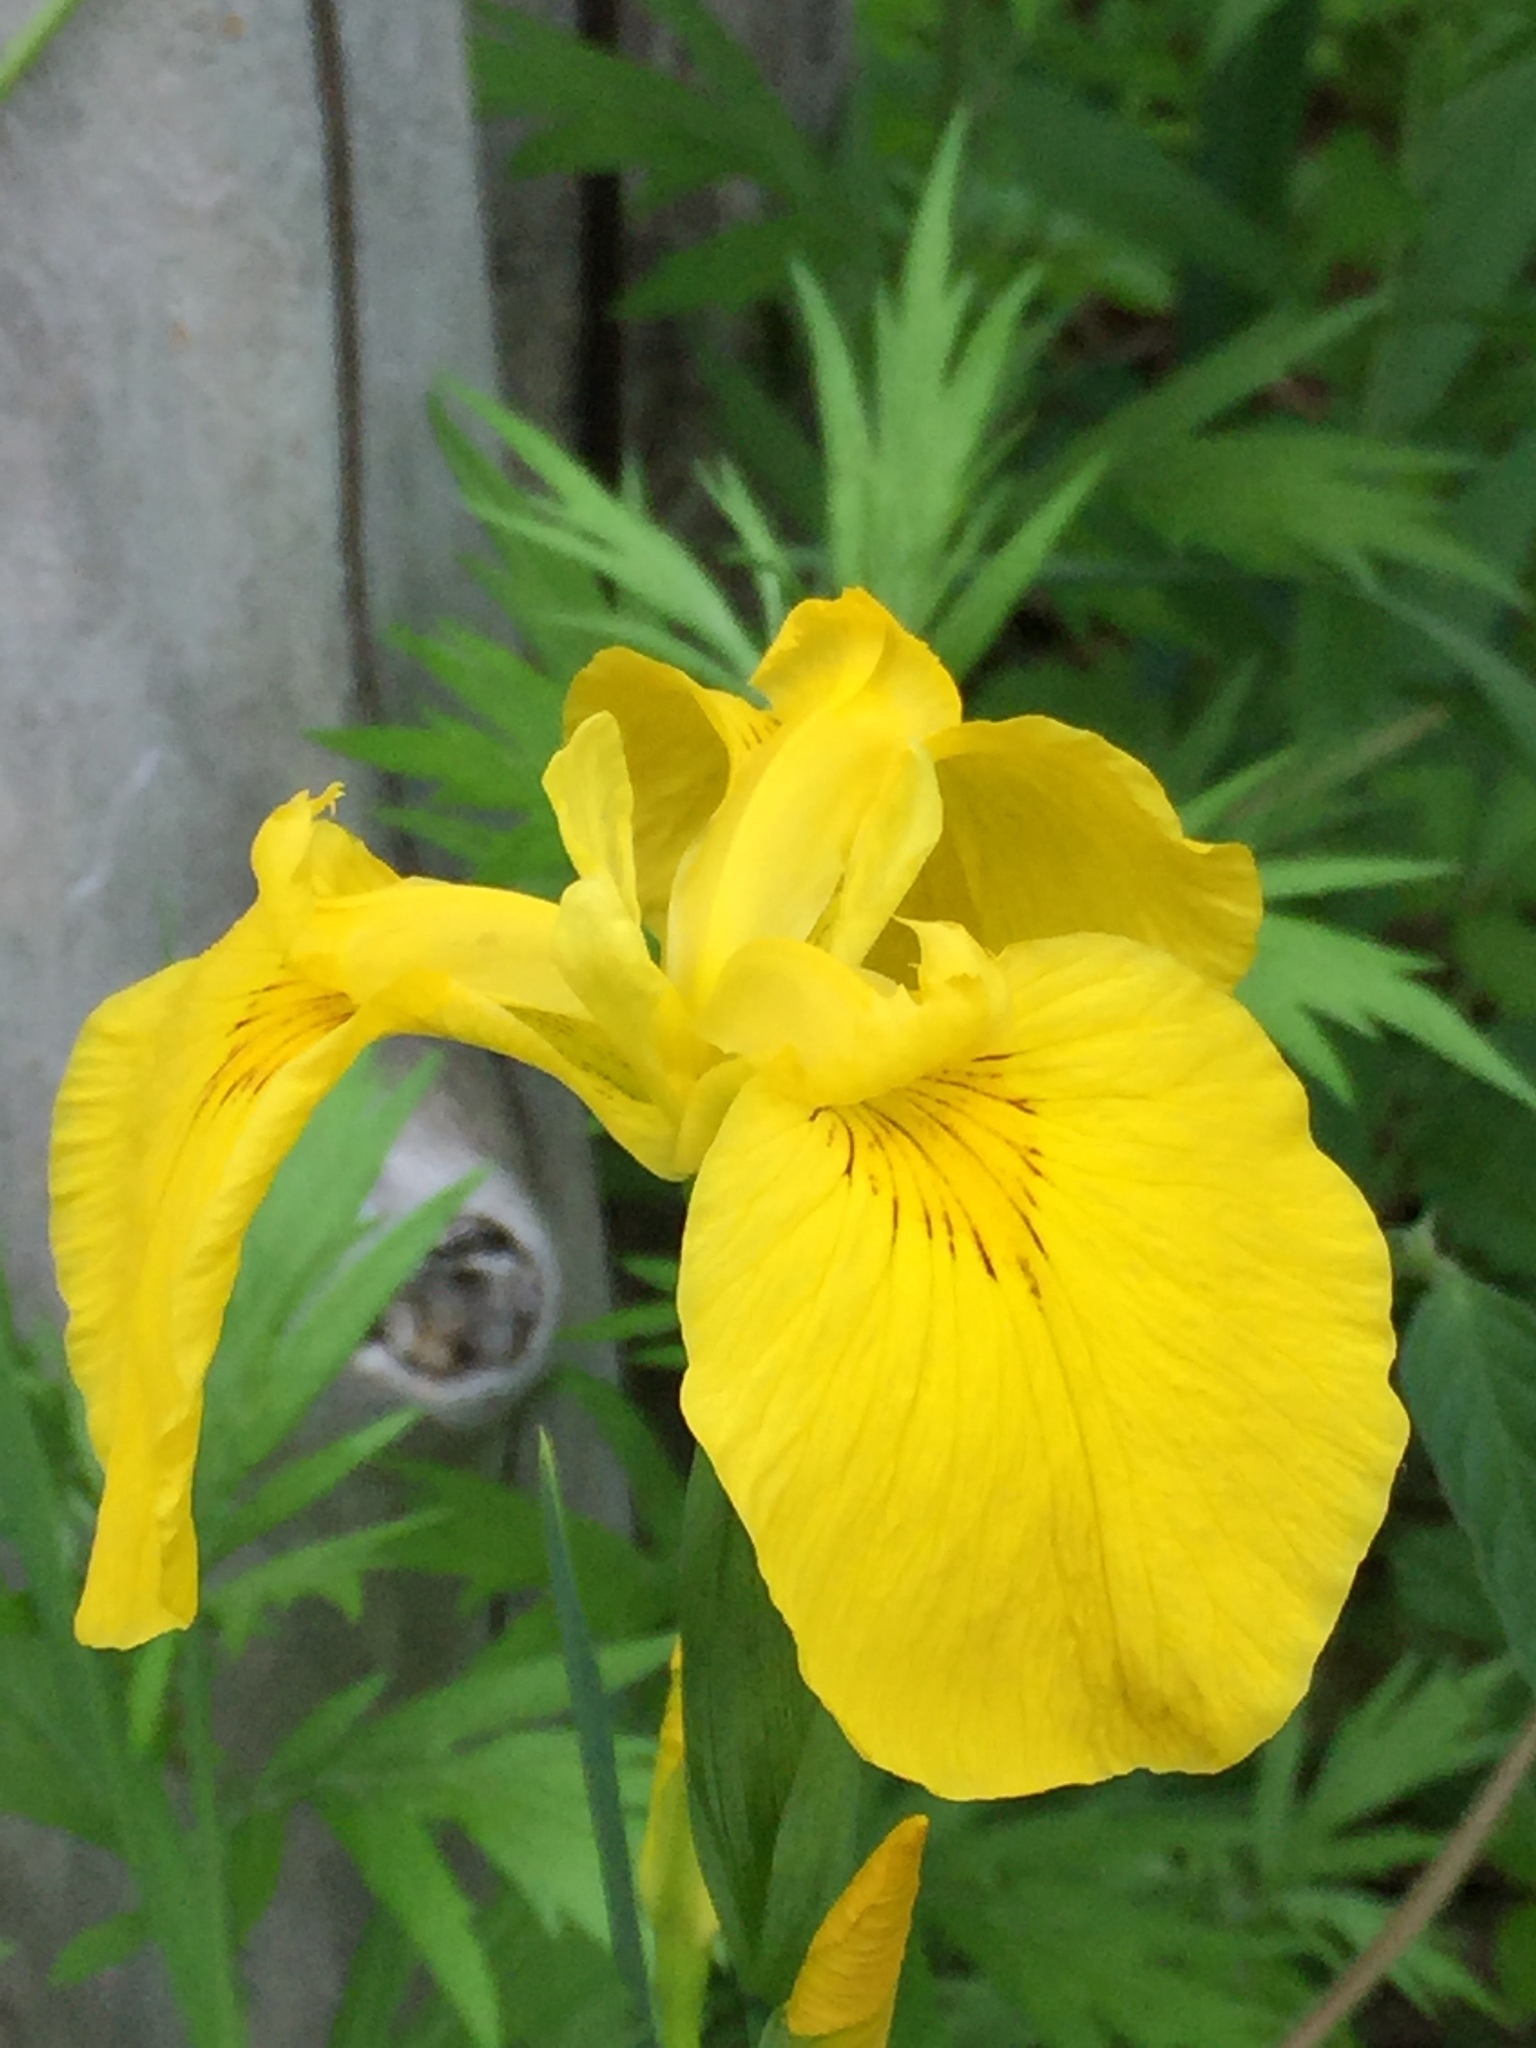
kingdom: Plantae
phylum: Tracheophyta
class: Liliopsida
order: Asparagales
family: Iridaceae
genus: Iris
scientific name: Iris pseudacorus
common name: Yellow flag
